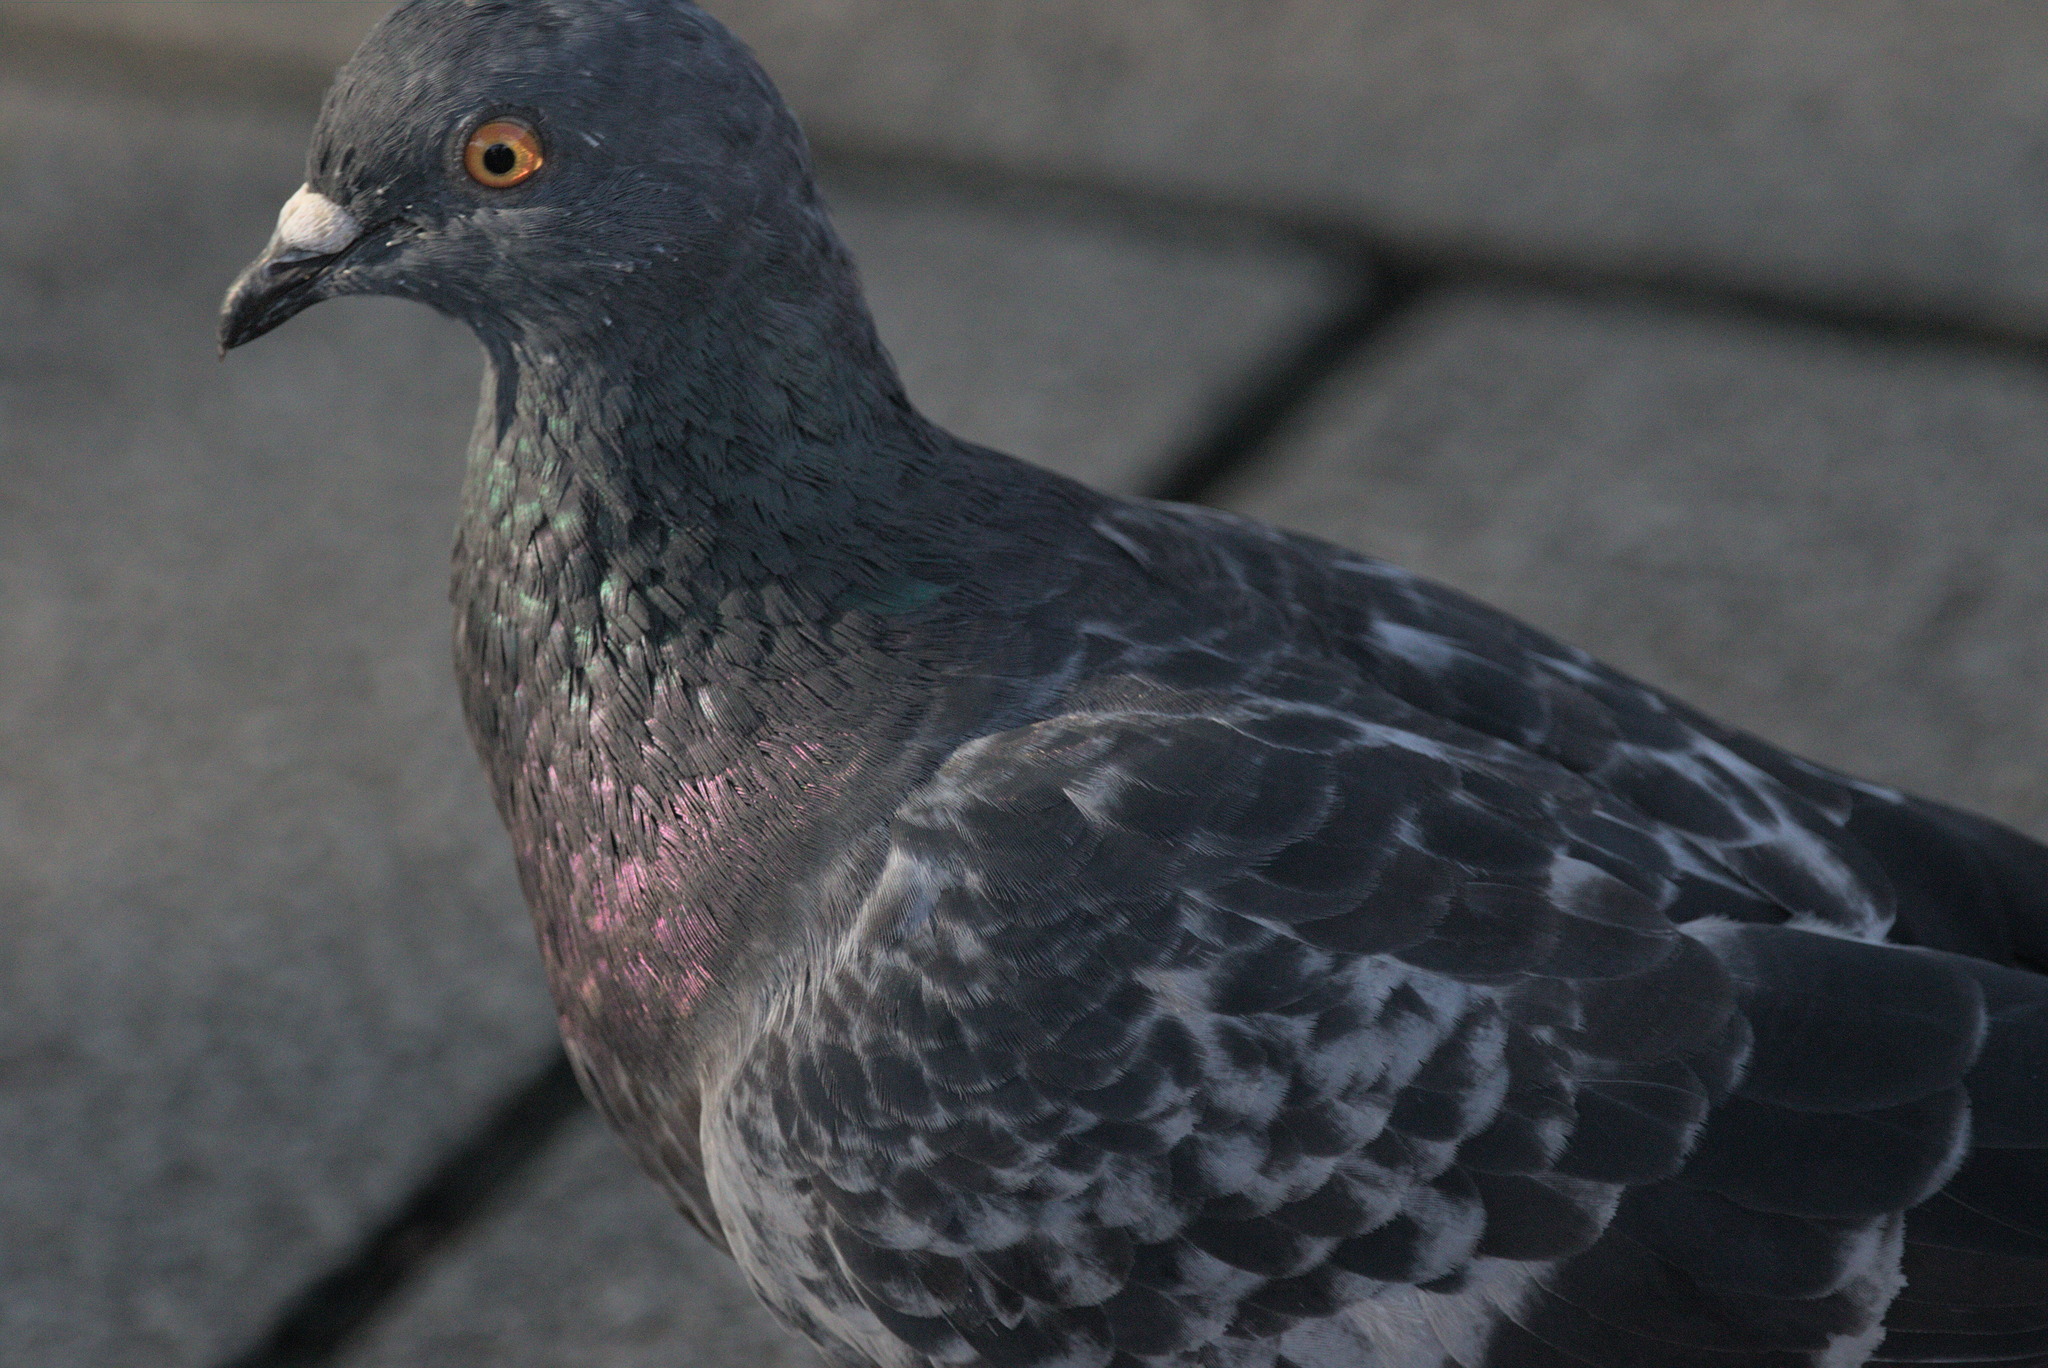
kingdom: Animalia
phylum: Chordata
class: Aves
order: Columbiformes
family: Columbidae
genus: Columba
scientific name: Columba livia
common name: Rock pigeon
